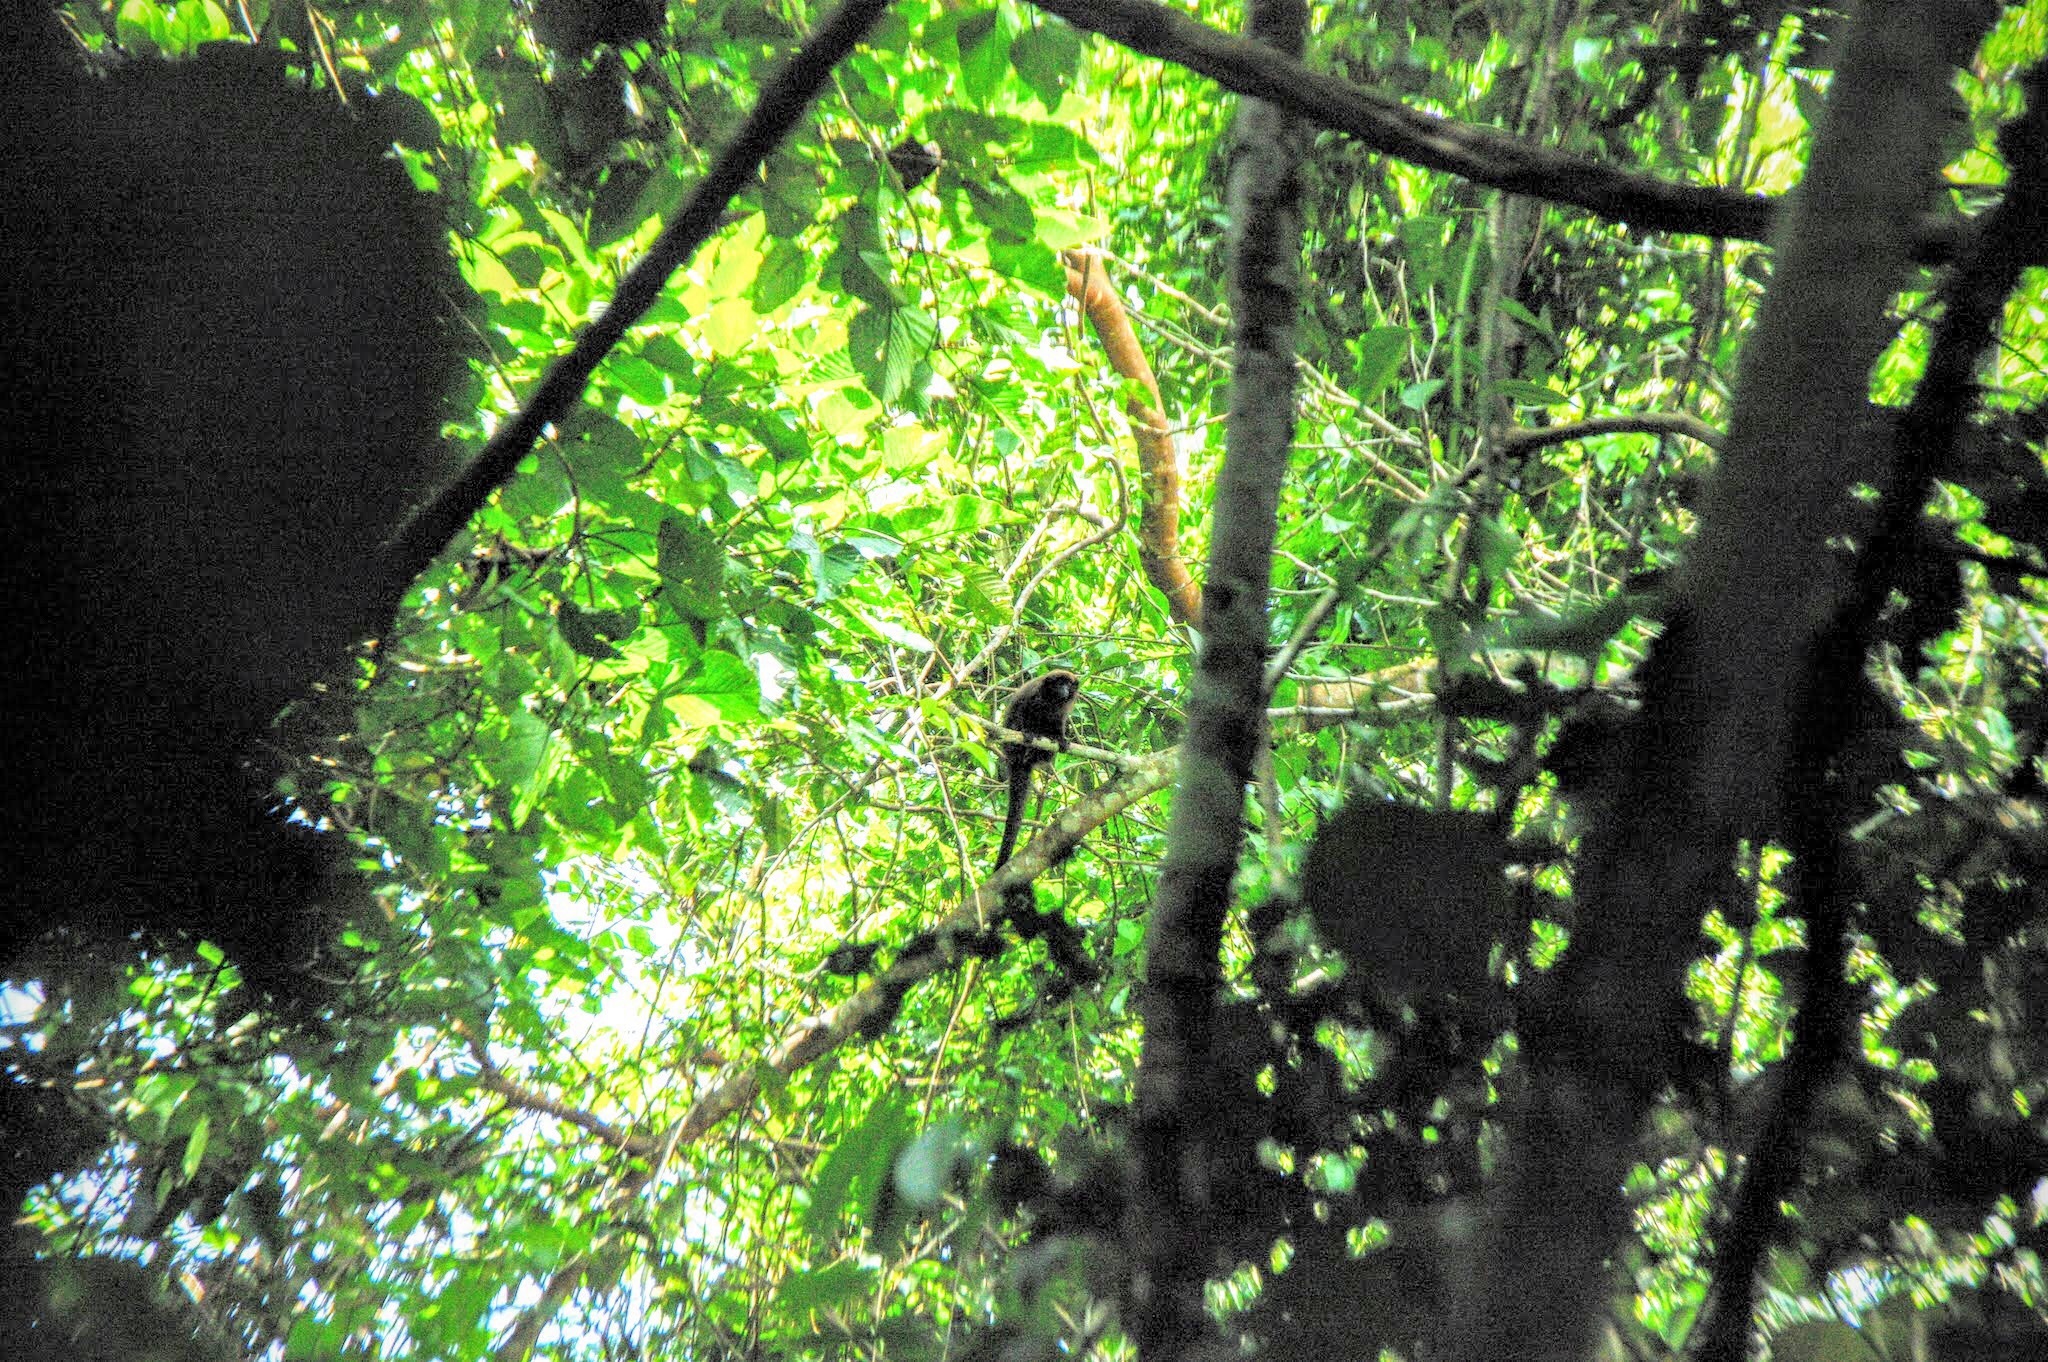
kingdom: Animalia
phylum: Chordata
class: Mammalia
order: Primates
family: Pitheciidae
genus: Plecturocebus
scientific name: Plecturocebus urubambensis
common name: Urubamba brown titi
